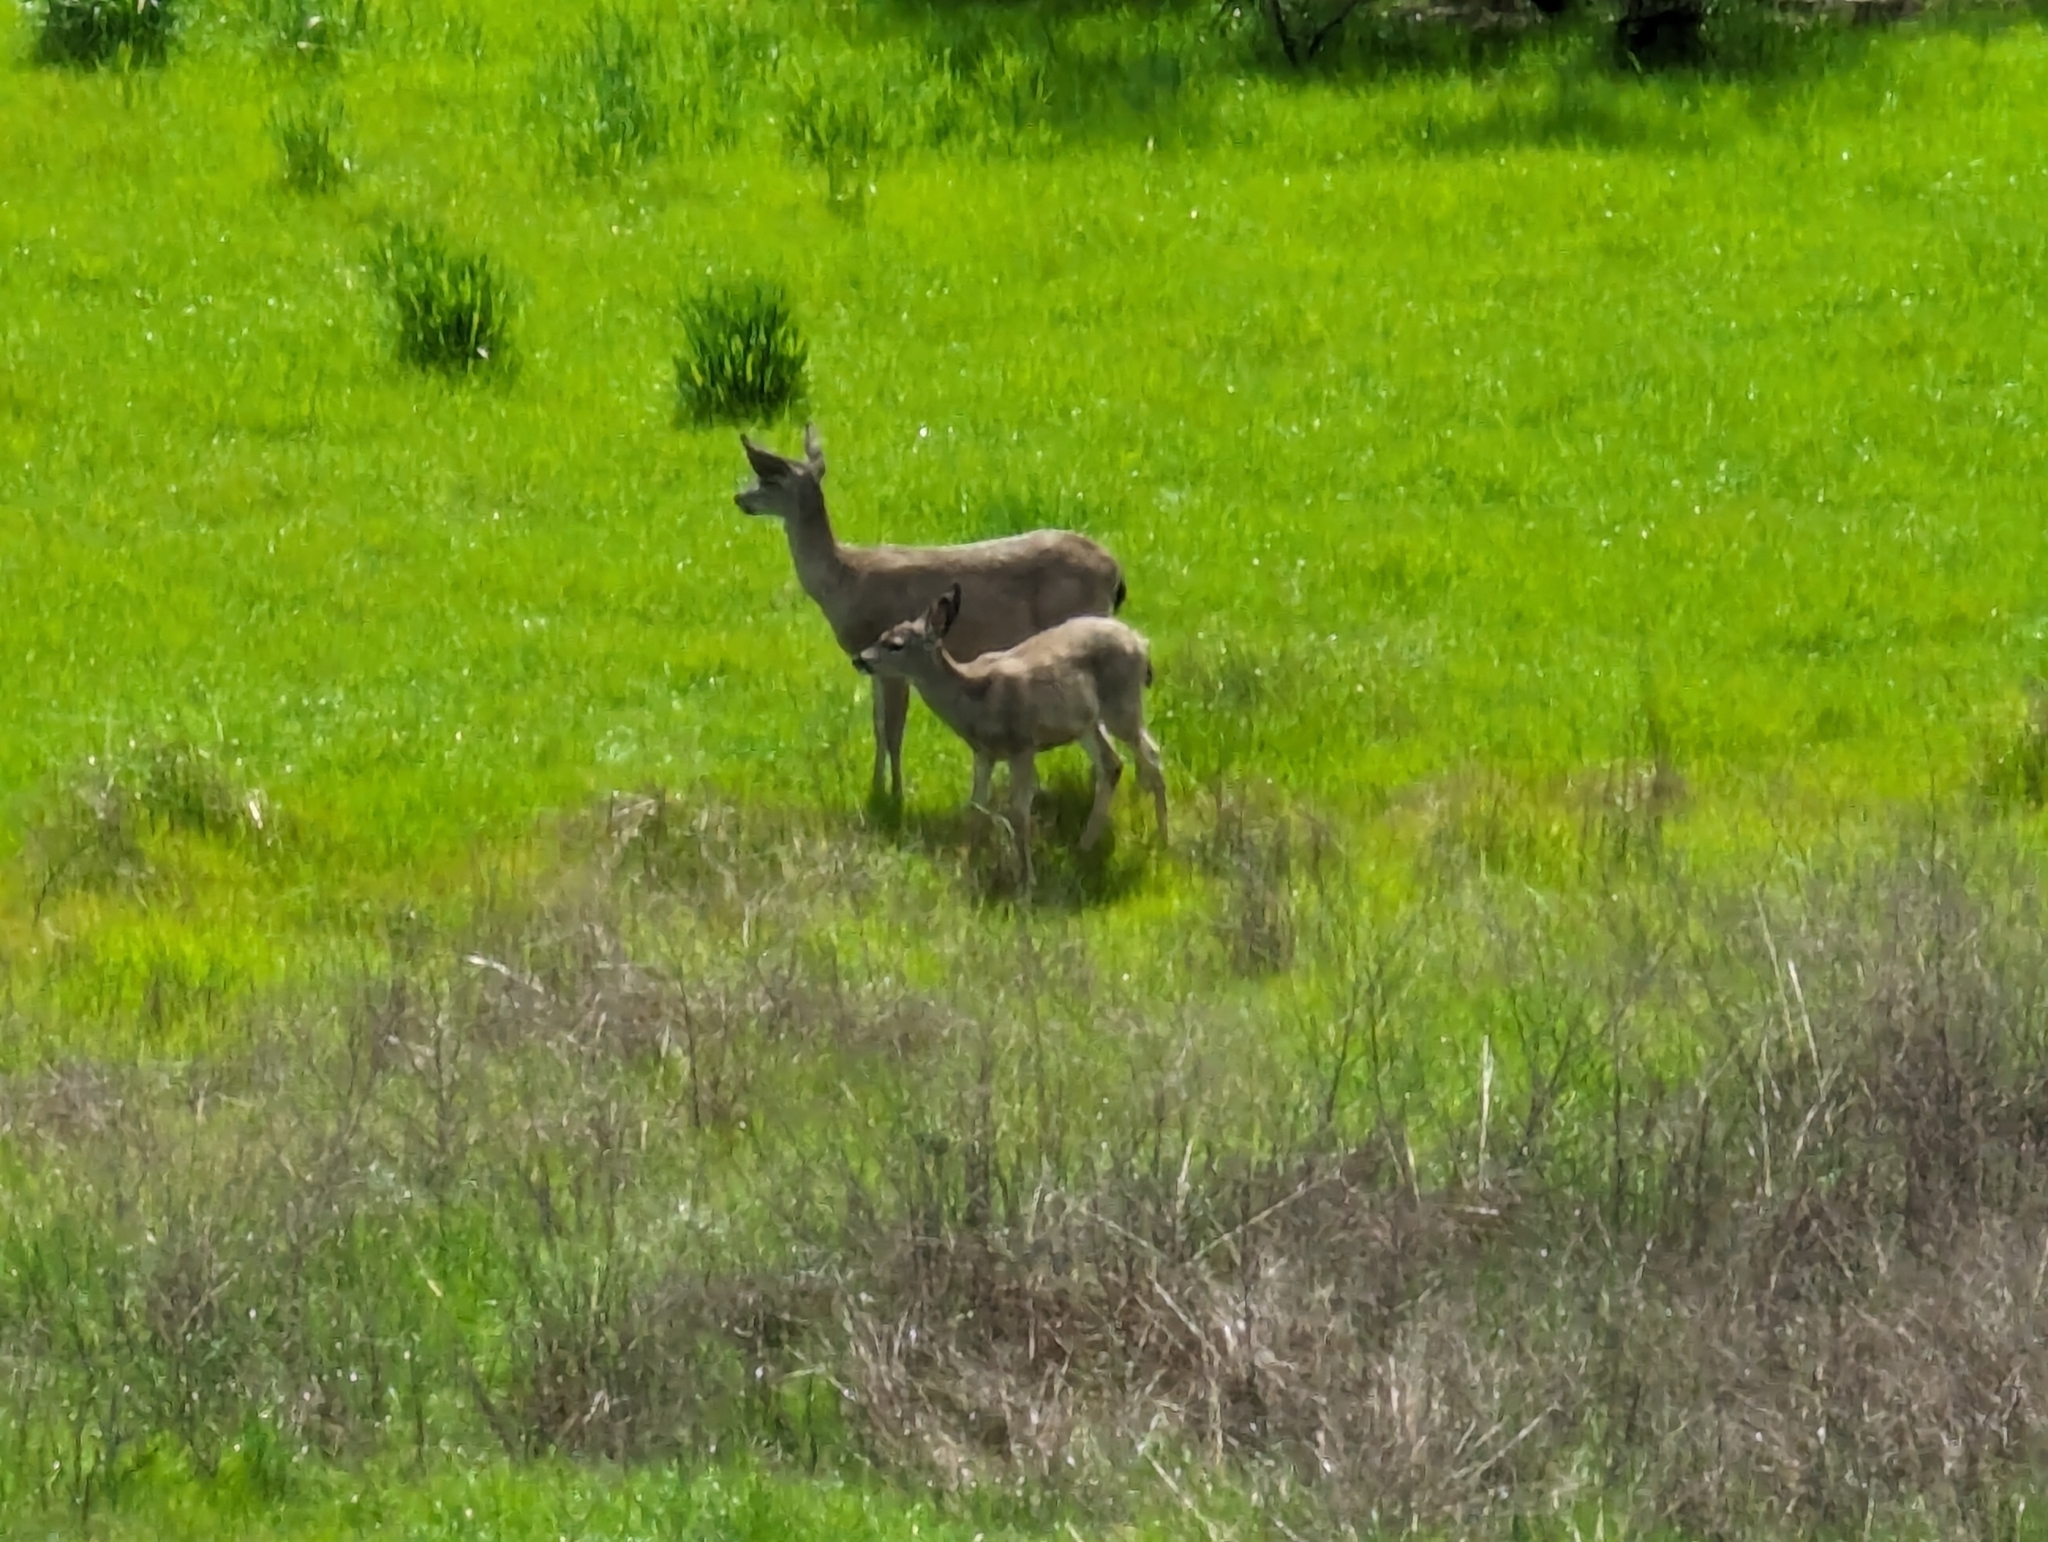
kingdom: Animalia
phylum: Chordata
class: Mammalia
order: Artiodactyla
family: Cervidae
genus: Odocoileus
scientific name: Odocoileus hemionus
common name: Mule deer
